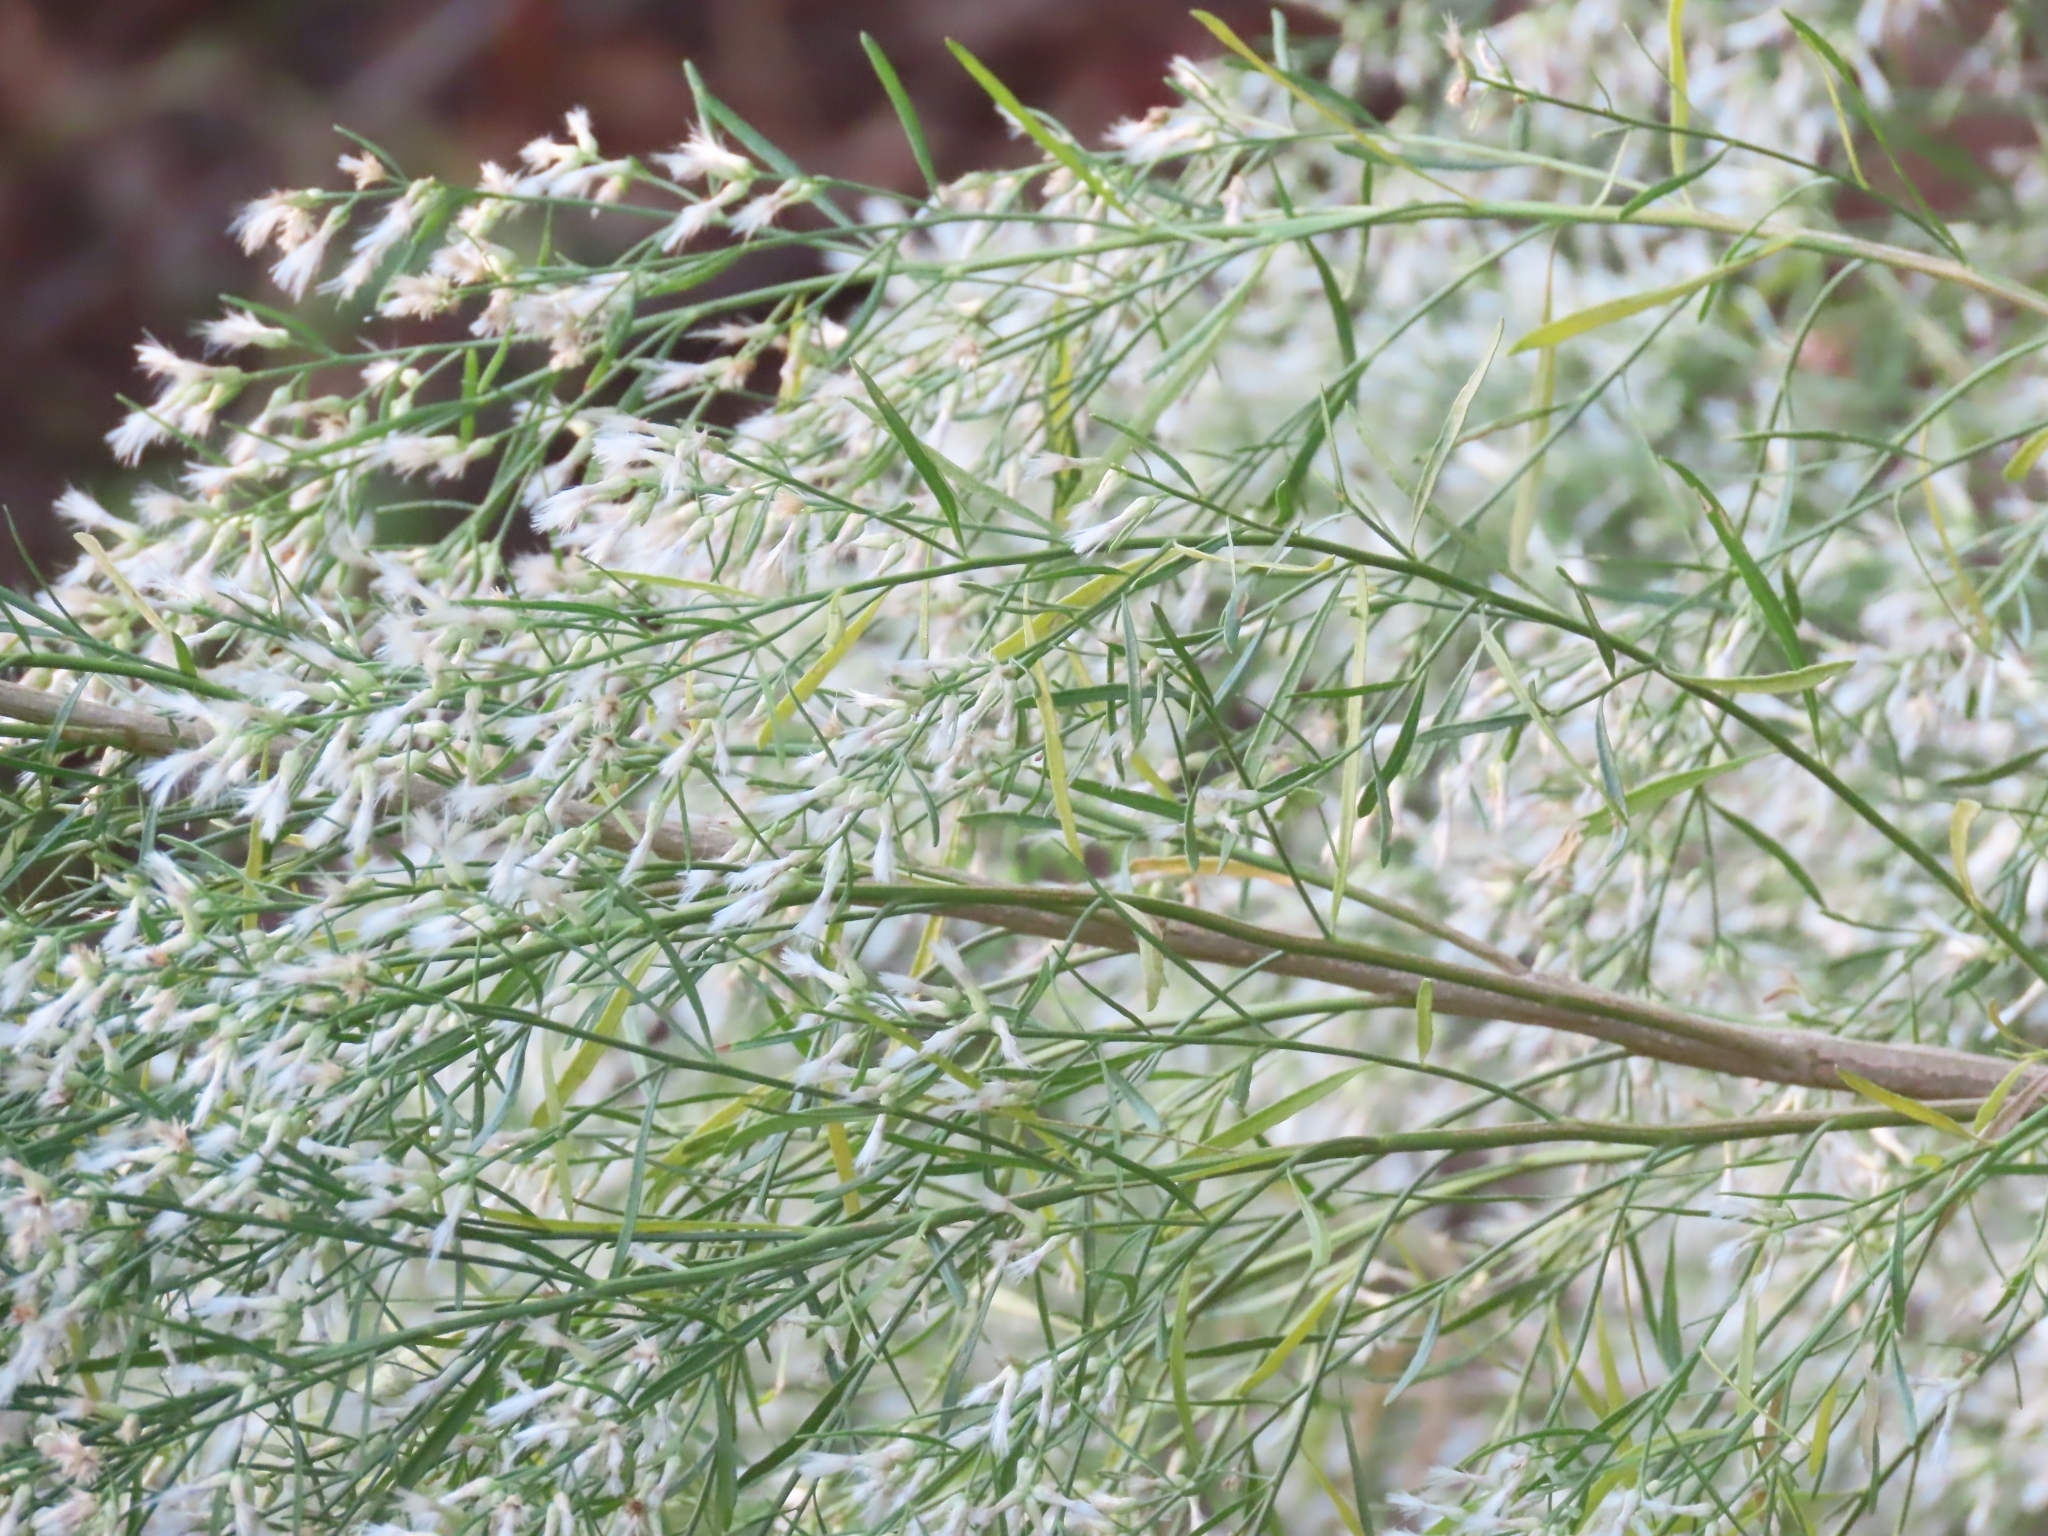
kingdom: Plantae
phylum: Tracheophyta
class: Magnoliopsida
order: Asterales
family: Asteraceae
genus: Baccharis
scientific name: Baccharis neglecta
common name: Roosevelt-weed
